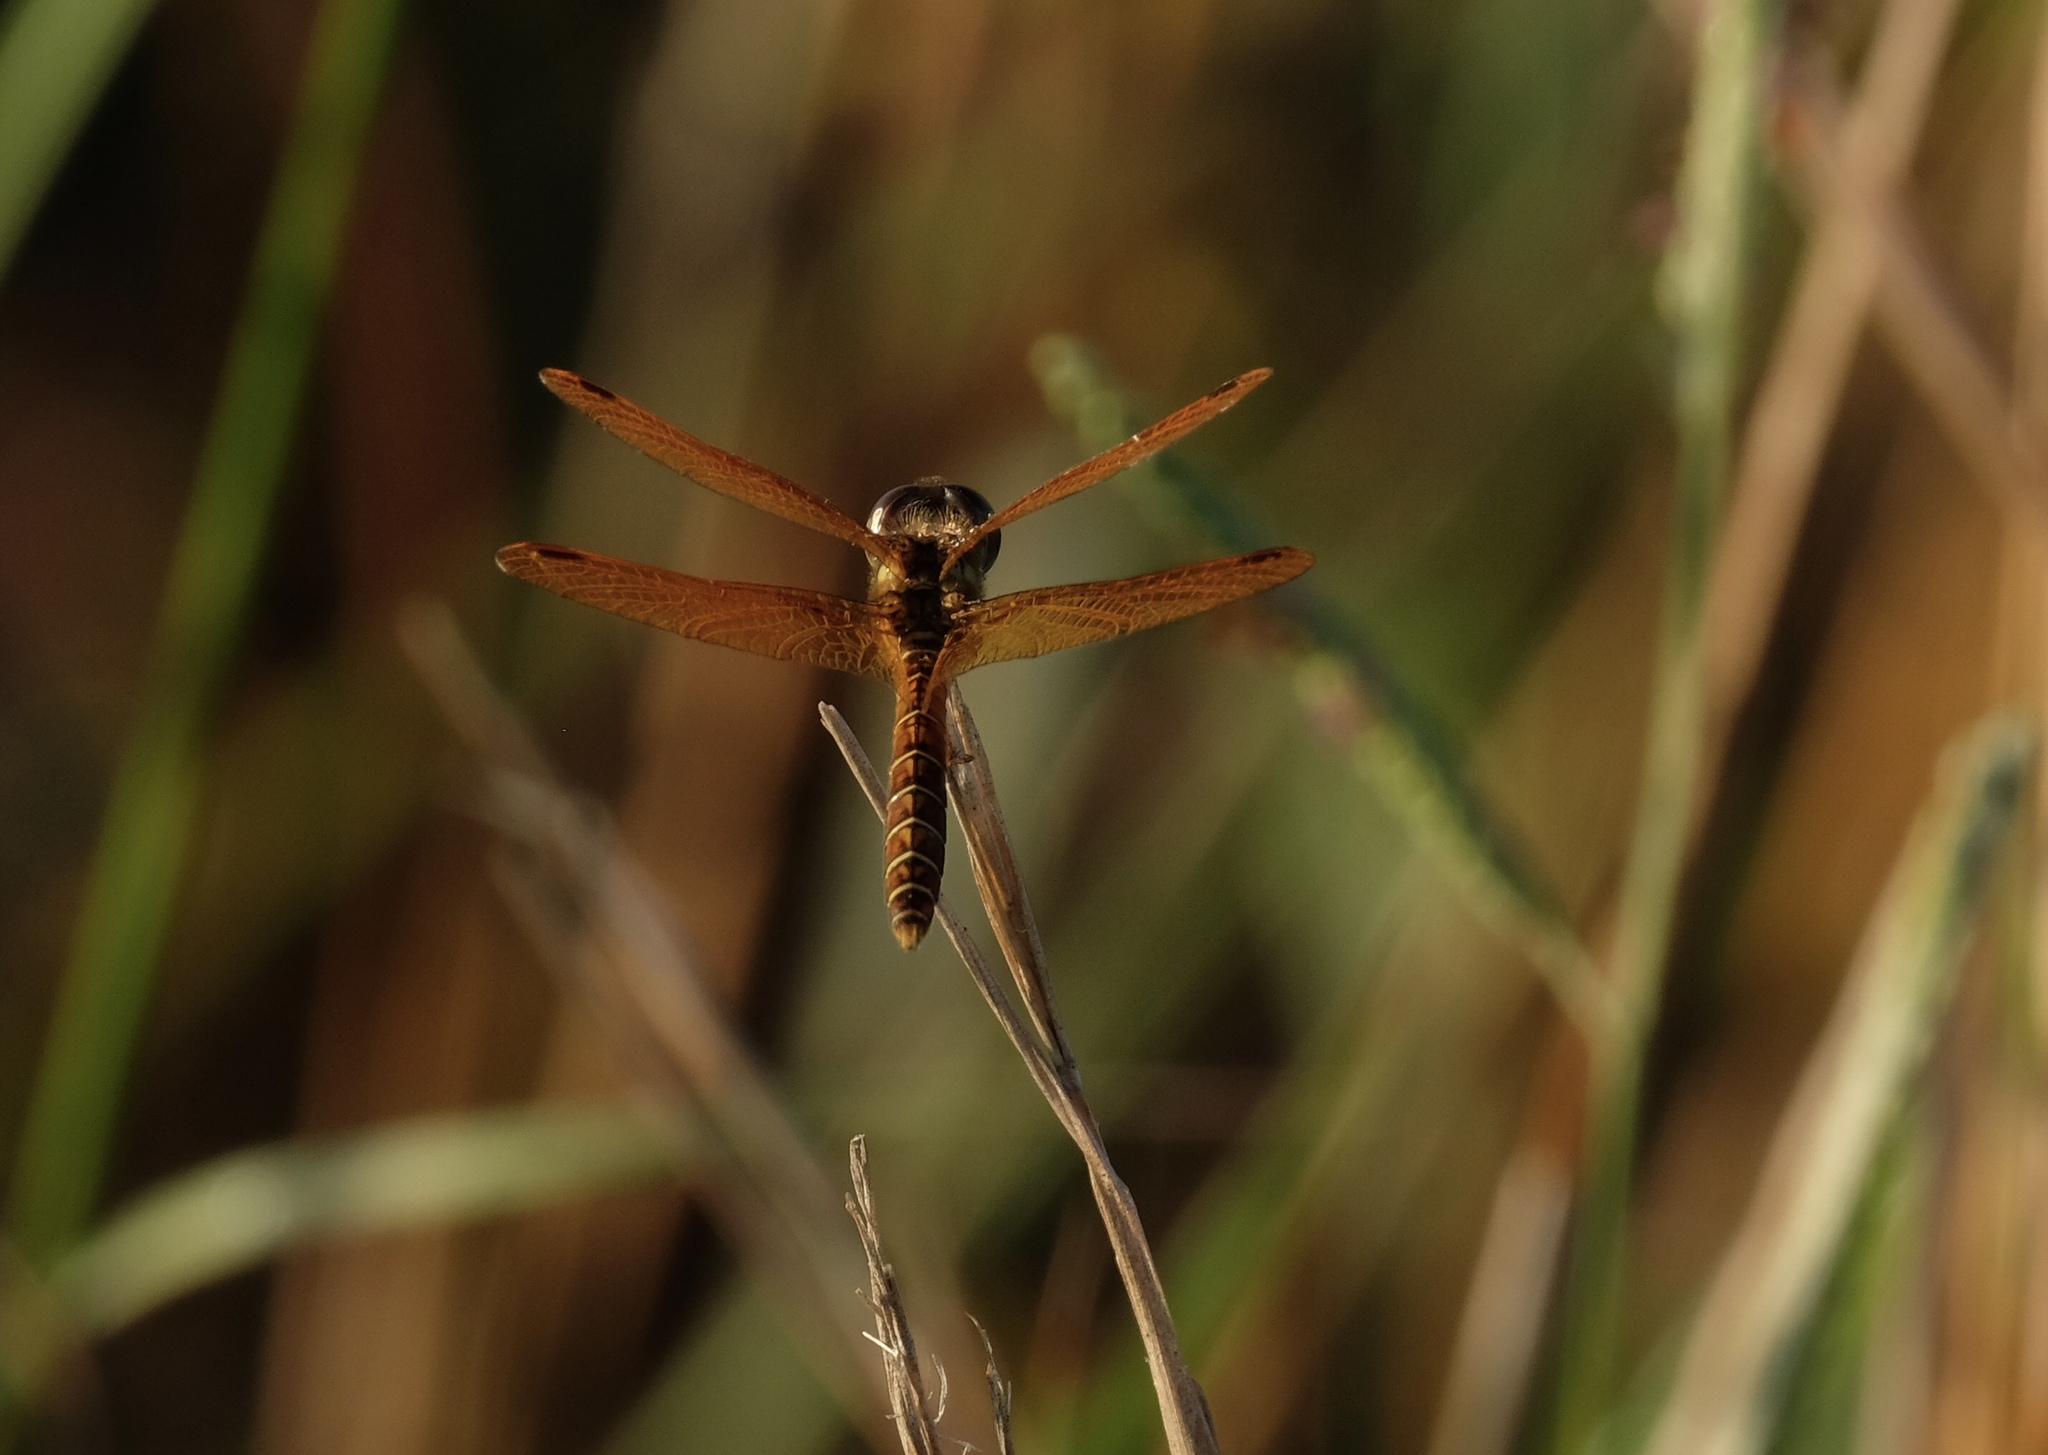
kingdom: Animalia
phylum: Arthropoda
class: Insecta
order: Odonata
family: Libellulidae
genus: Perithemis
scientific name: Perithemis tenera
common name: Eastern amberwing
